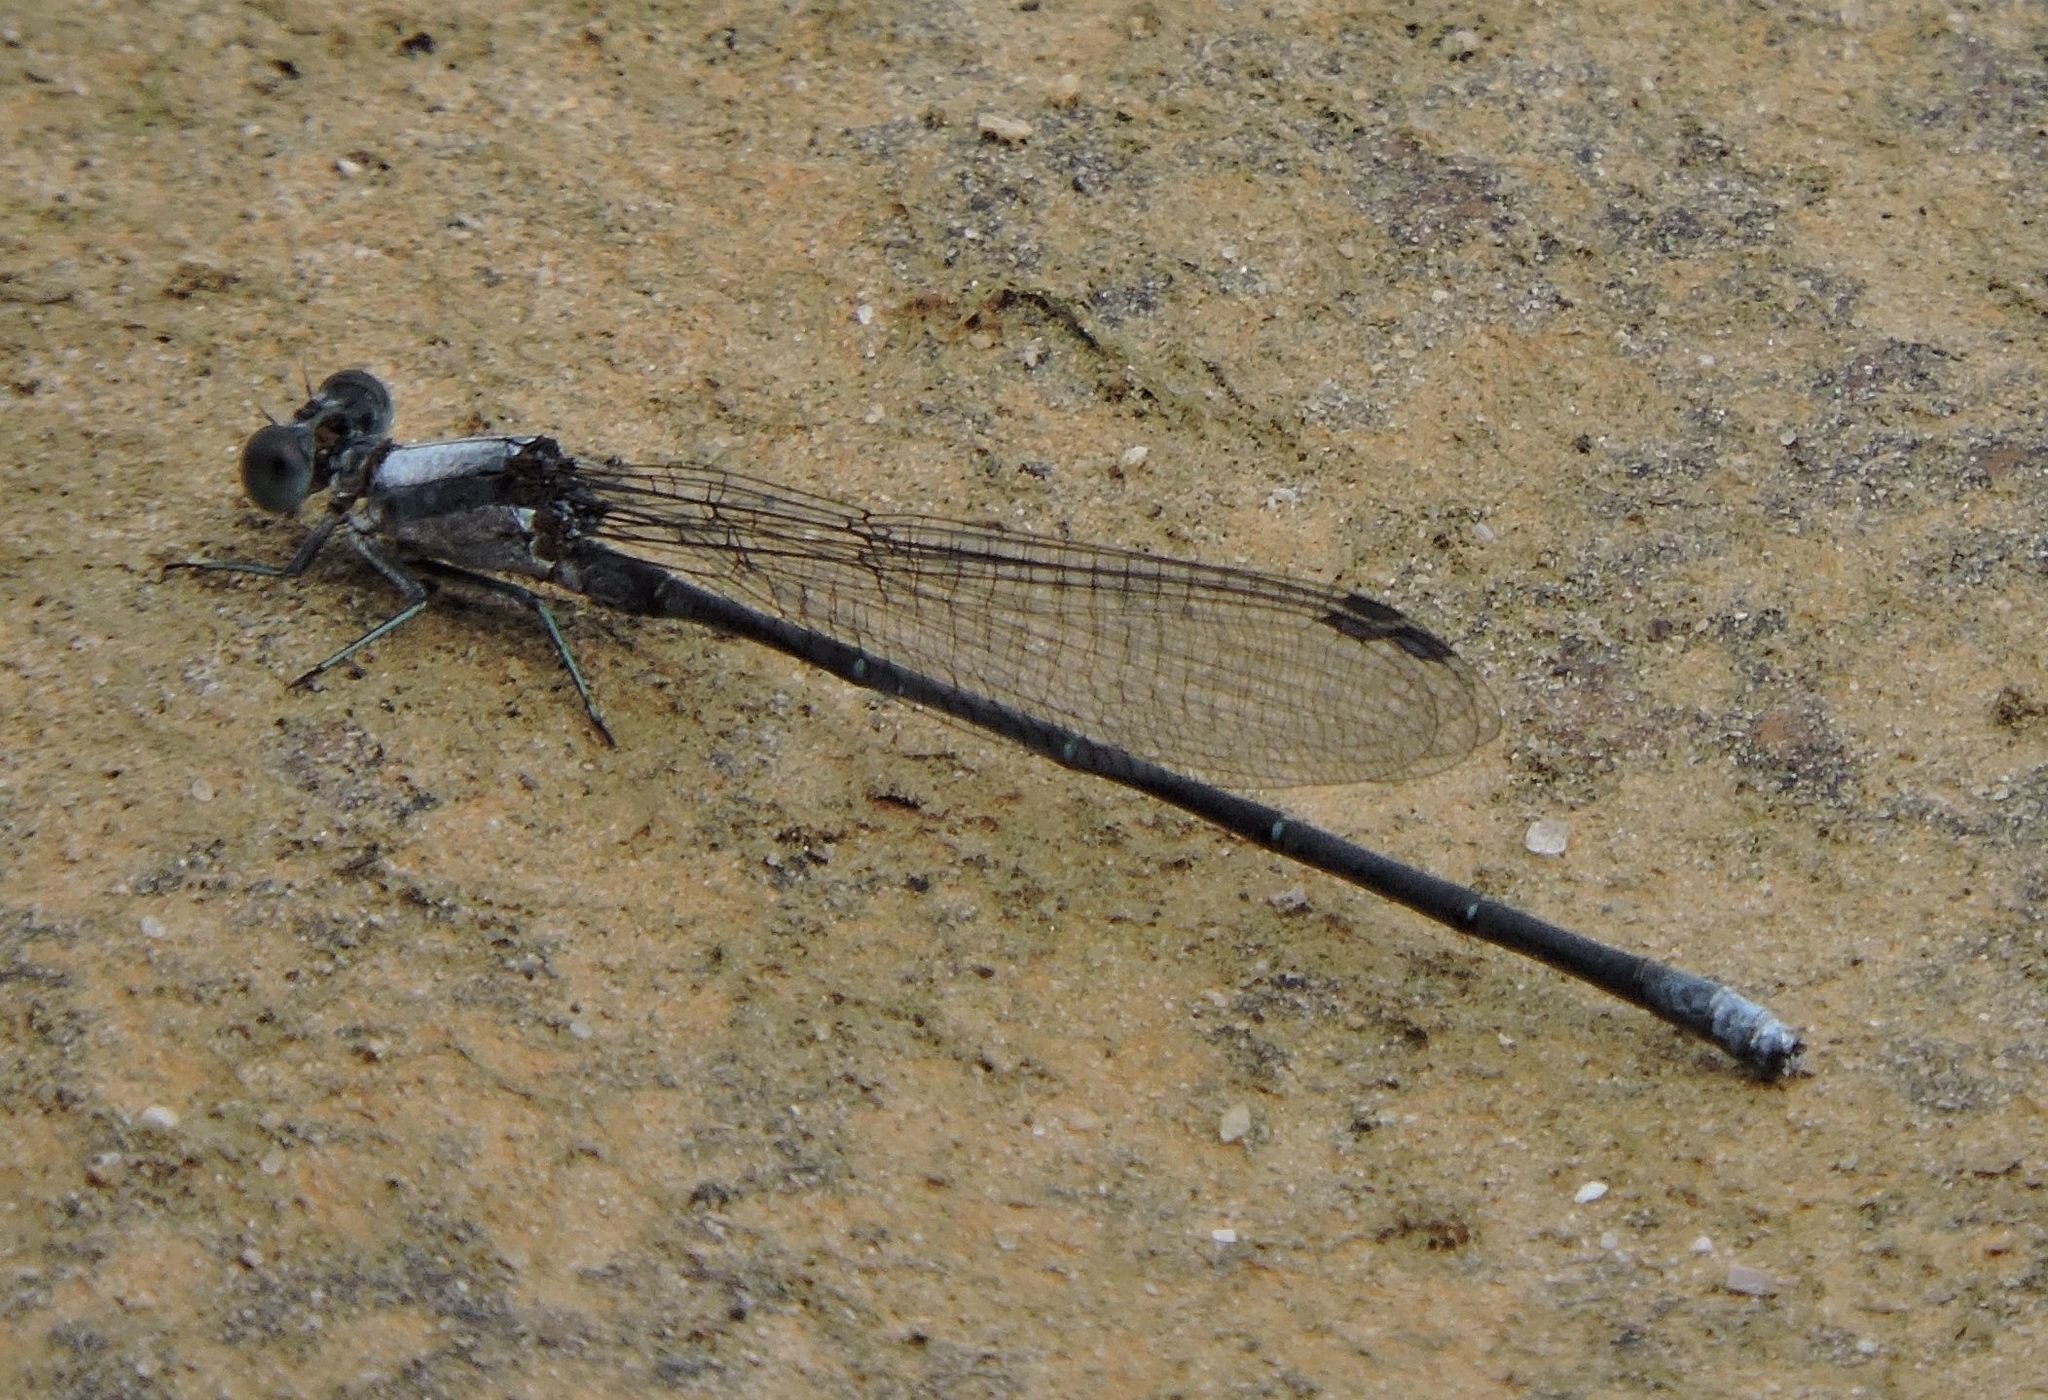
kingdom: Animalia
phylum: Arthropoda
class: Insecta
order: Odonata
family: Coenagrionidae
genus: Argia
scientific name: Argia moesta
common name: Powdered dancer
